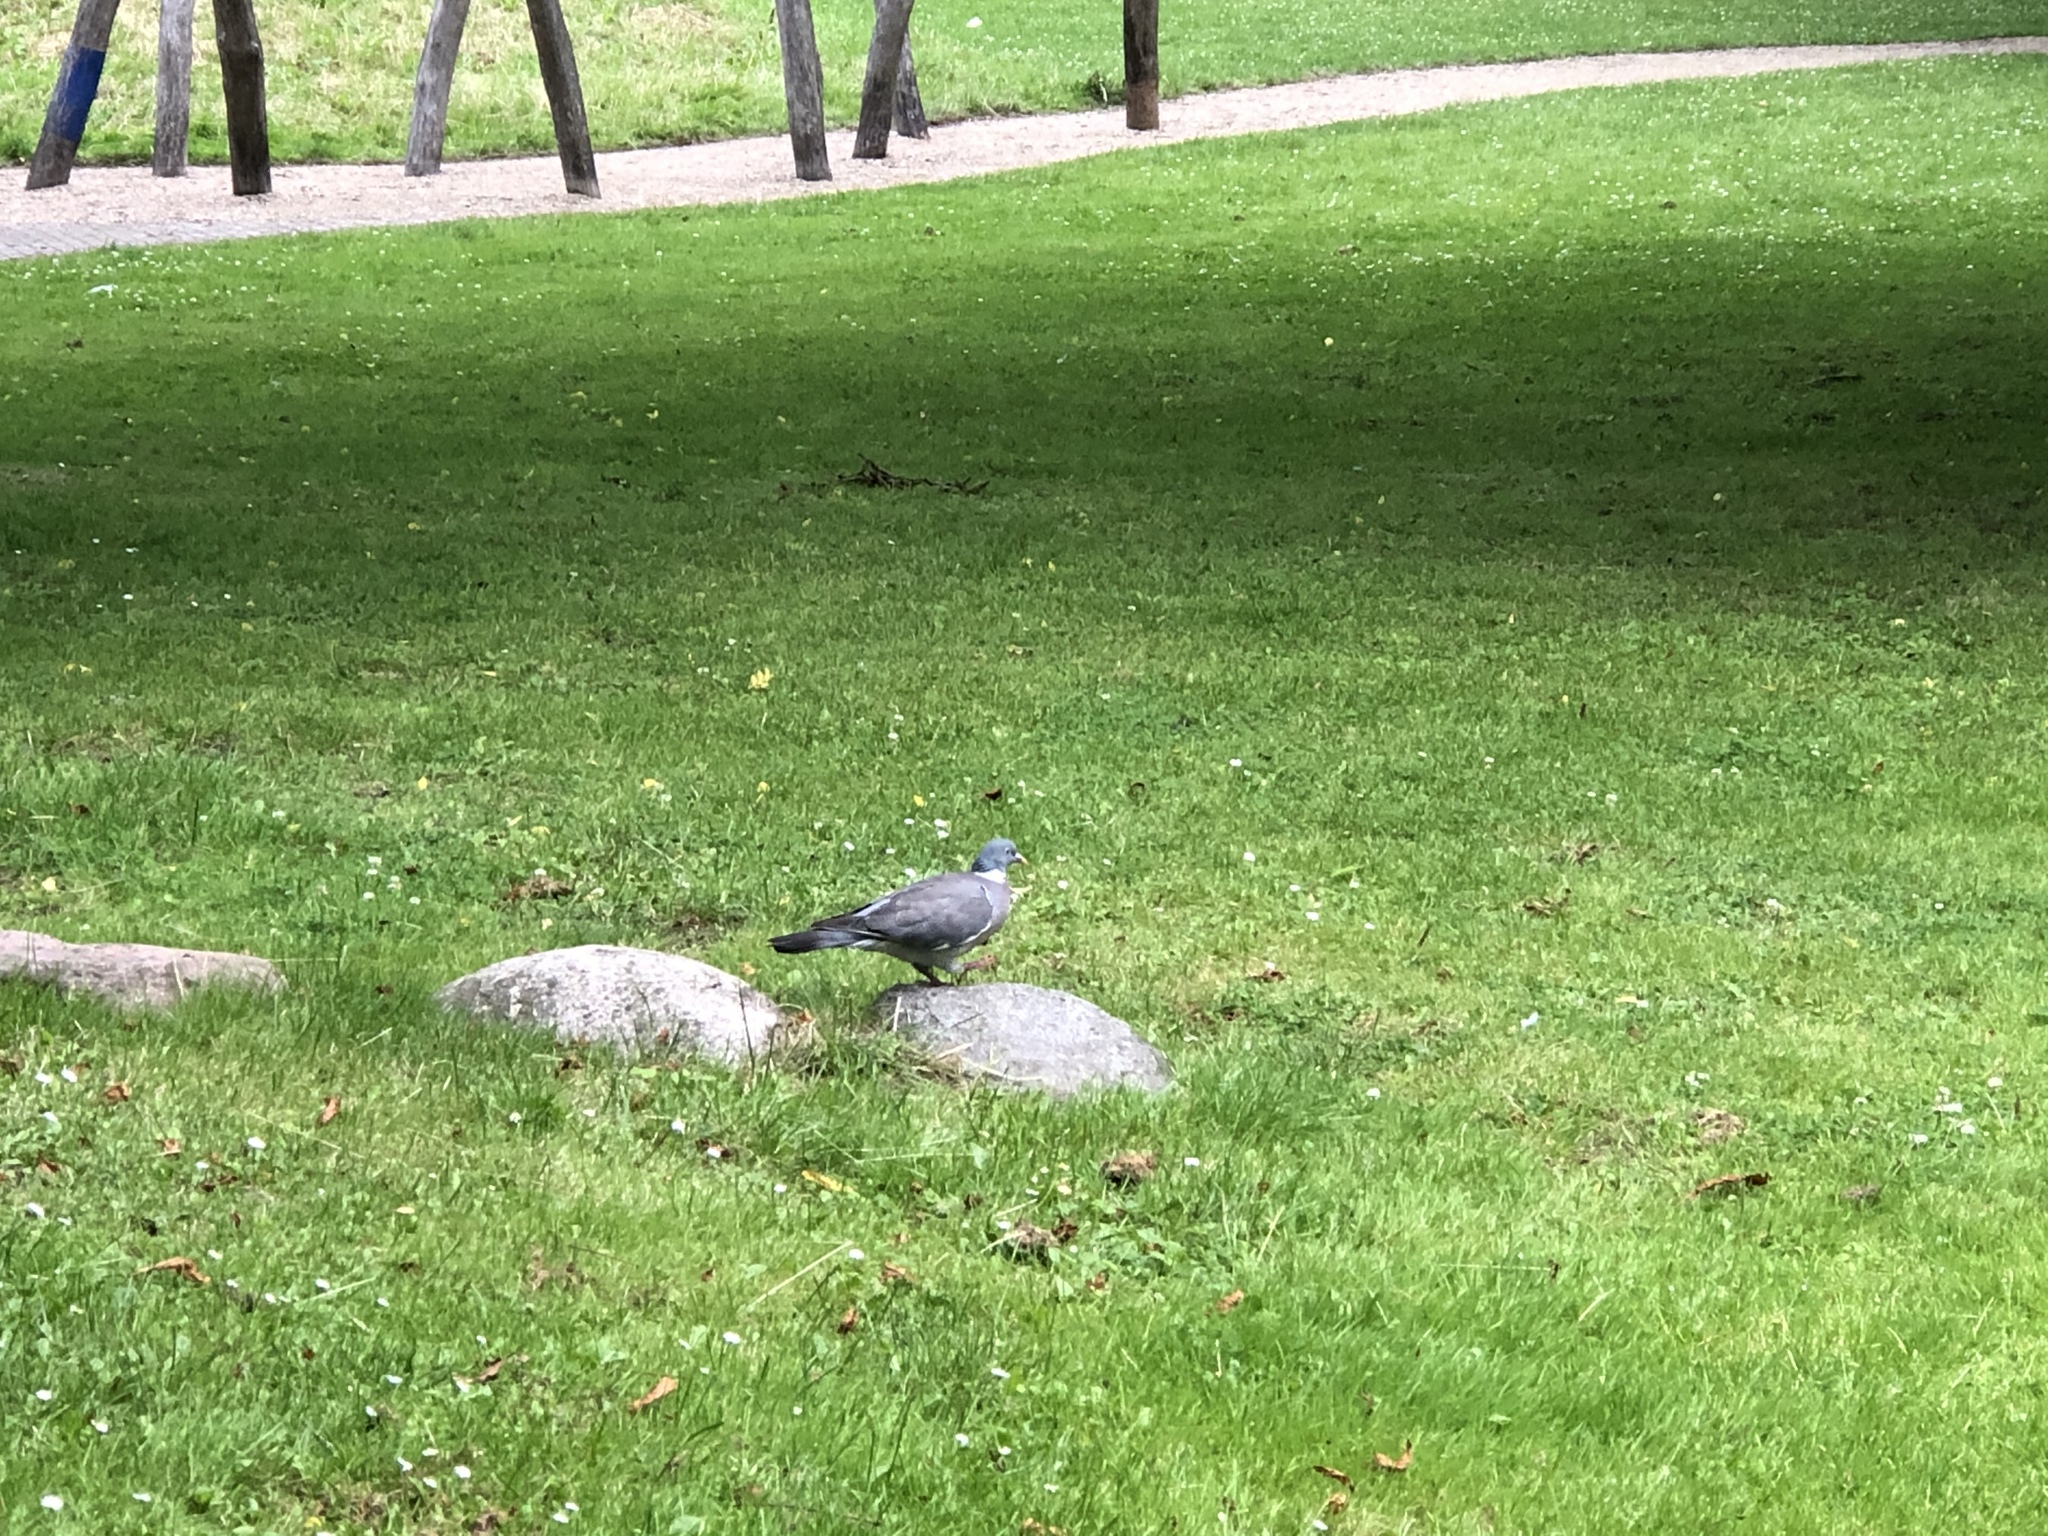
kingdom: Animalia
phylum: Chordata
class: Aves
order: Columbiformes
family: Columbidae
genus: Columba
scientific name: Columba palumbus
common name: Common wood pigeon
